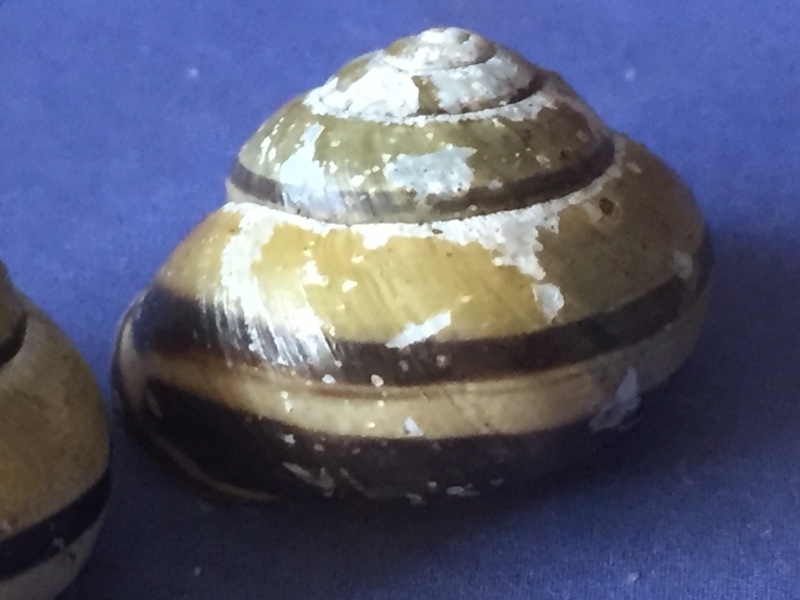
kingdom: Animalia
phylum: Mollusca
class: Gastropoda
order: Stylommatophora
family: Helicidae
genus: Cepaea
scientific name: Cepaea nemoralis
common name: Grovesnail
